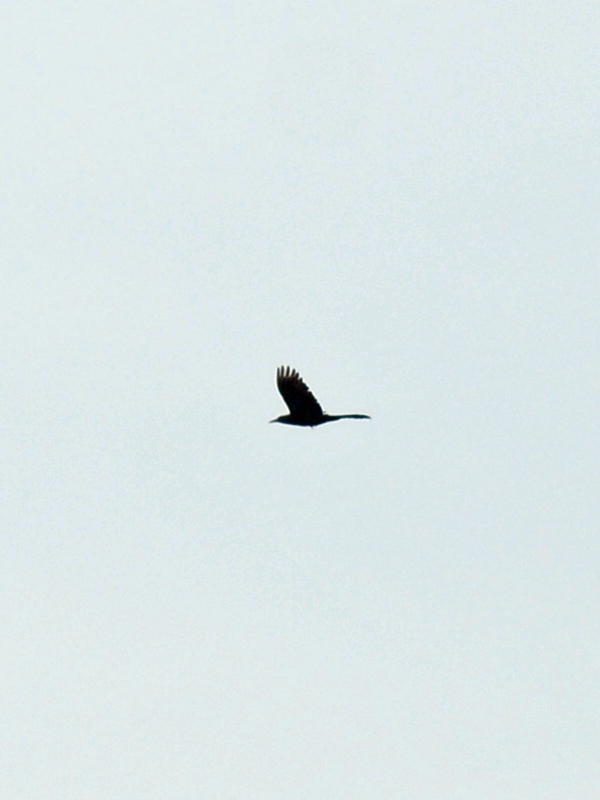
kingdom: Animalia
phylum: Chordata
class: Aves
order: Passeriformes
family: Icteridae
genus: Quiscalus
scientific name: Quiscalus mexicanus
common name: Great-tailed grackle
